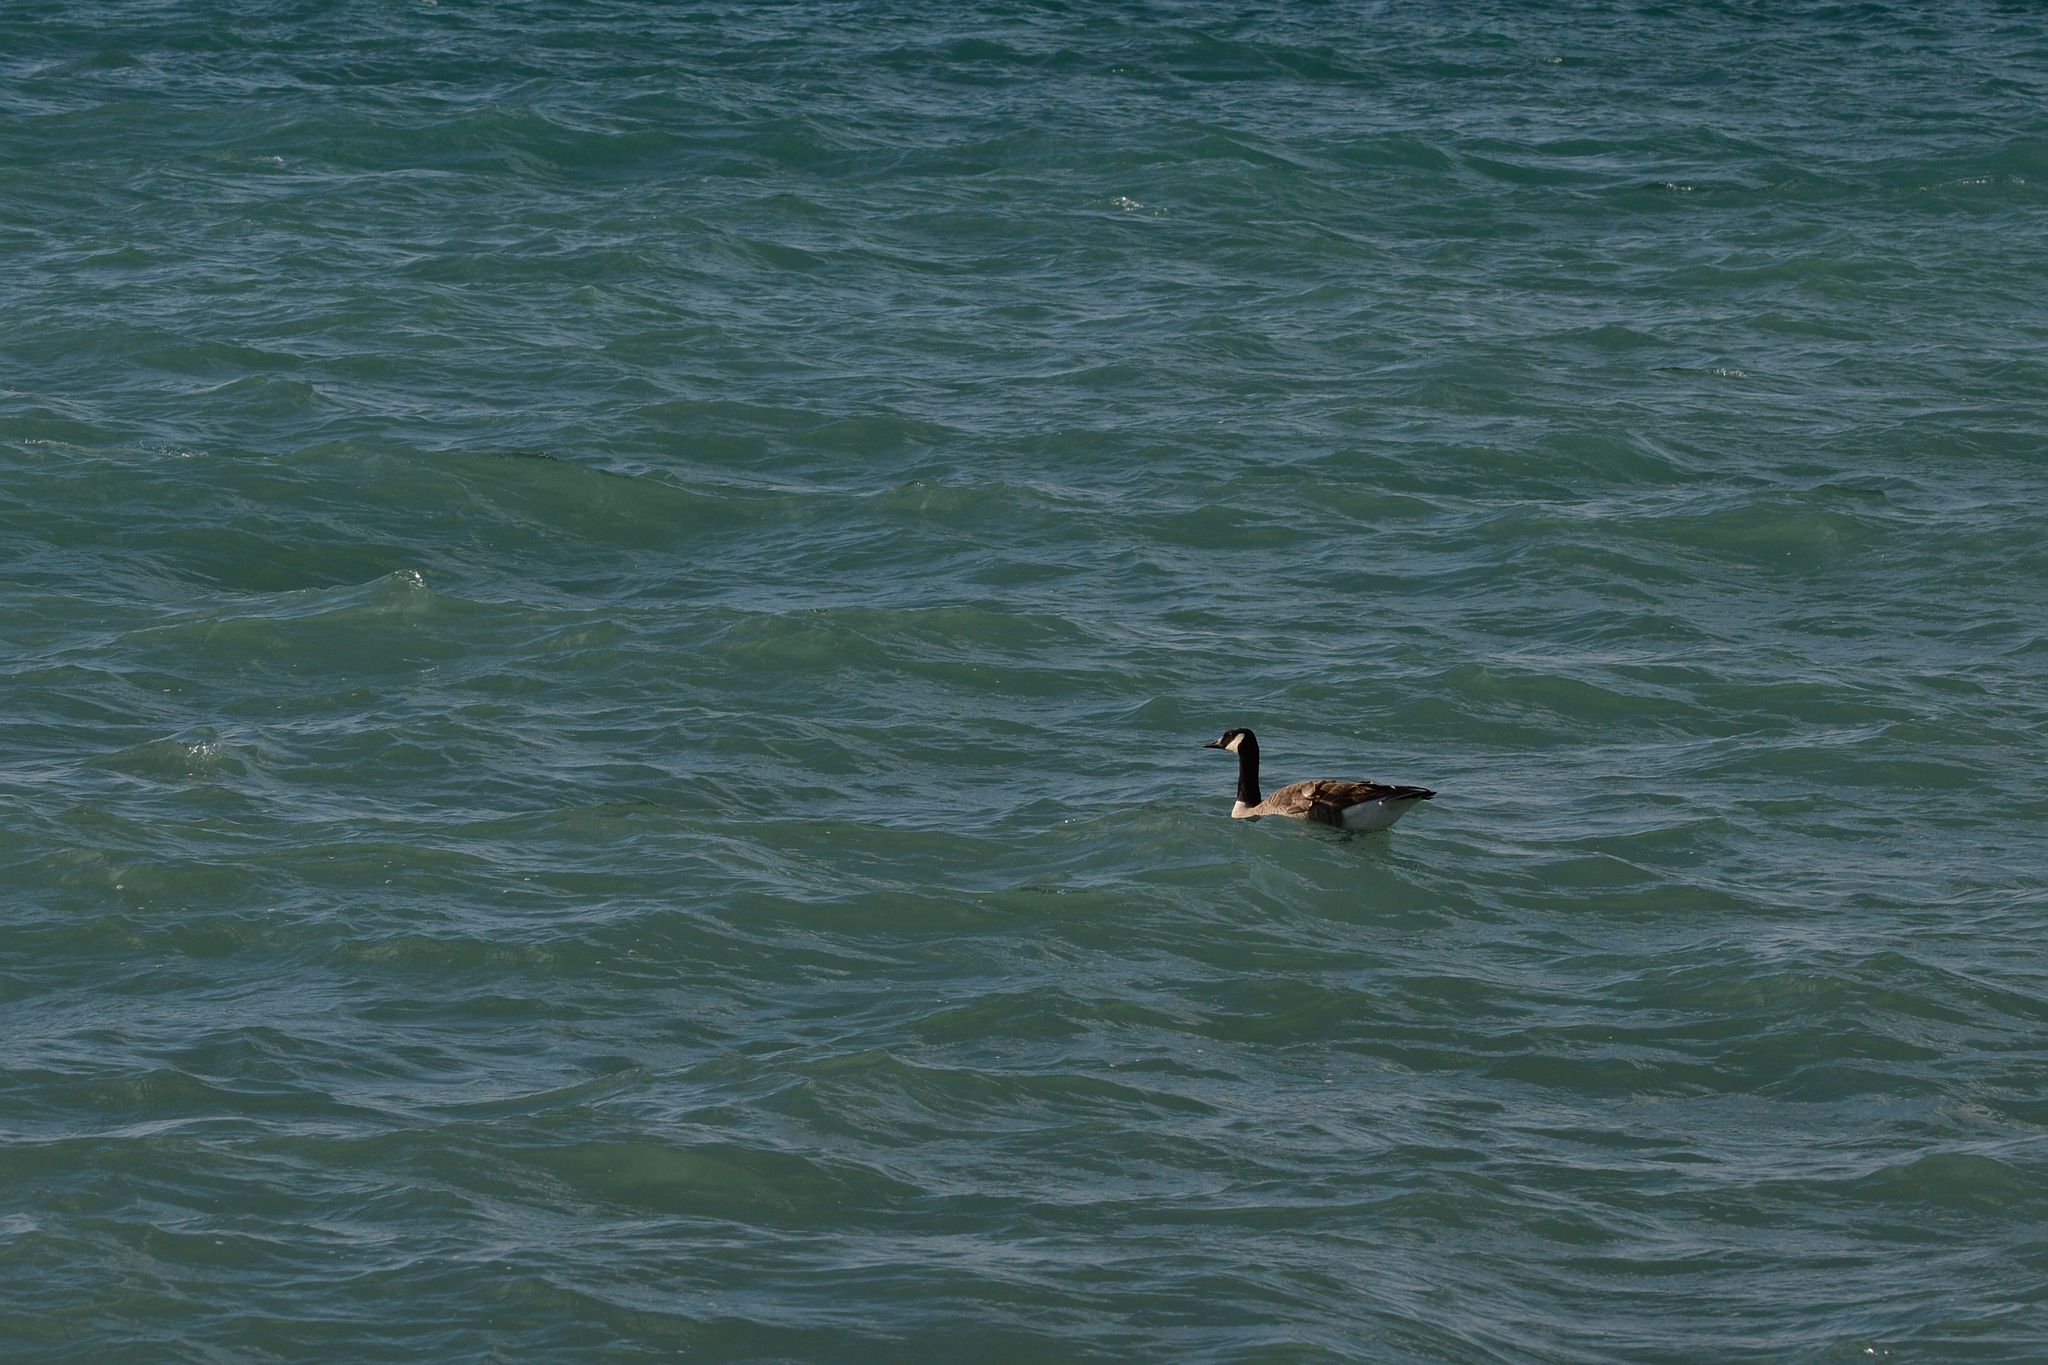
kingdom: Animalia
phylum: Chordata
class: Aves
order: Anseriformes
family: Anatidae
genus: Branta
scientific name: Branta canadensis
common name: Canada goose
